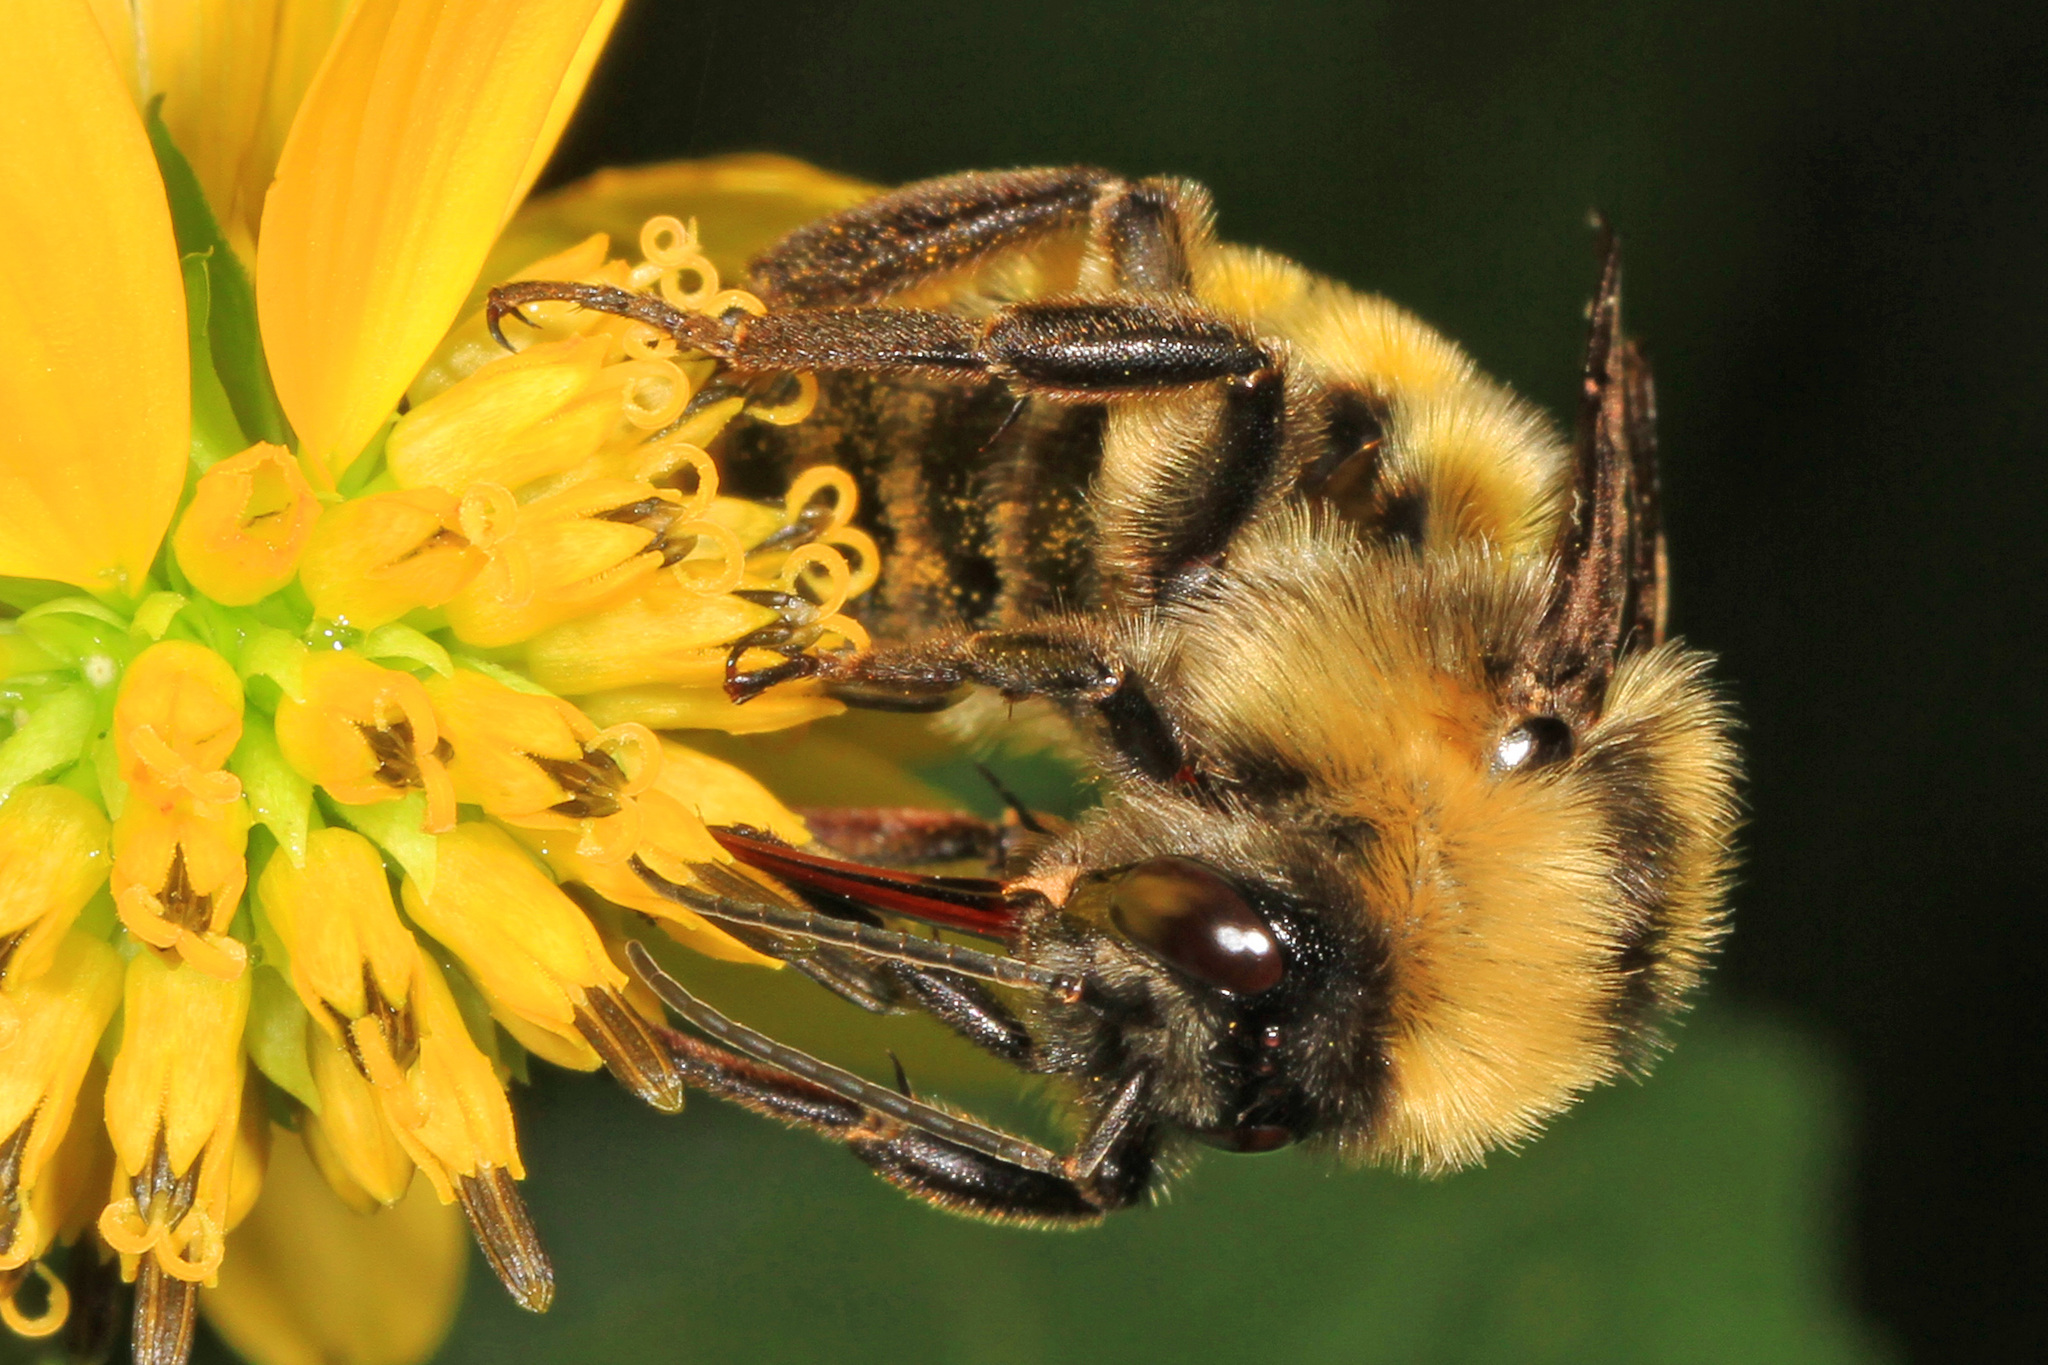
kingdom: Animalia
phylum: Arthropoda
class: Insecta
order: Hymenoptera
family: Apidae
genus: Bombus
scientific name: Bombus pensylvanicus
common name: Bumble bee
